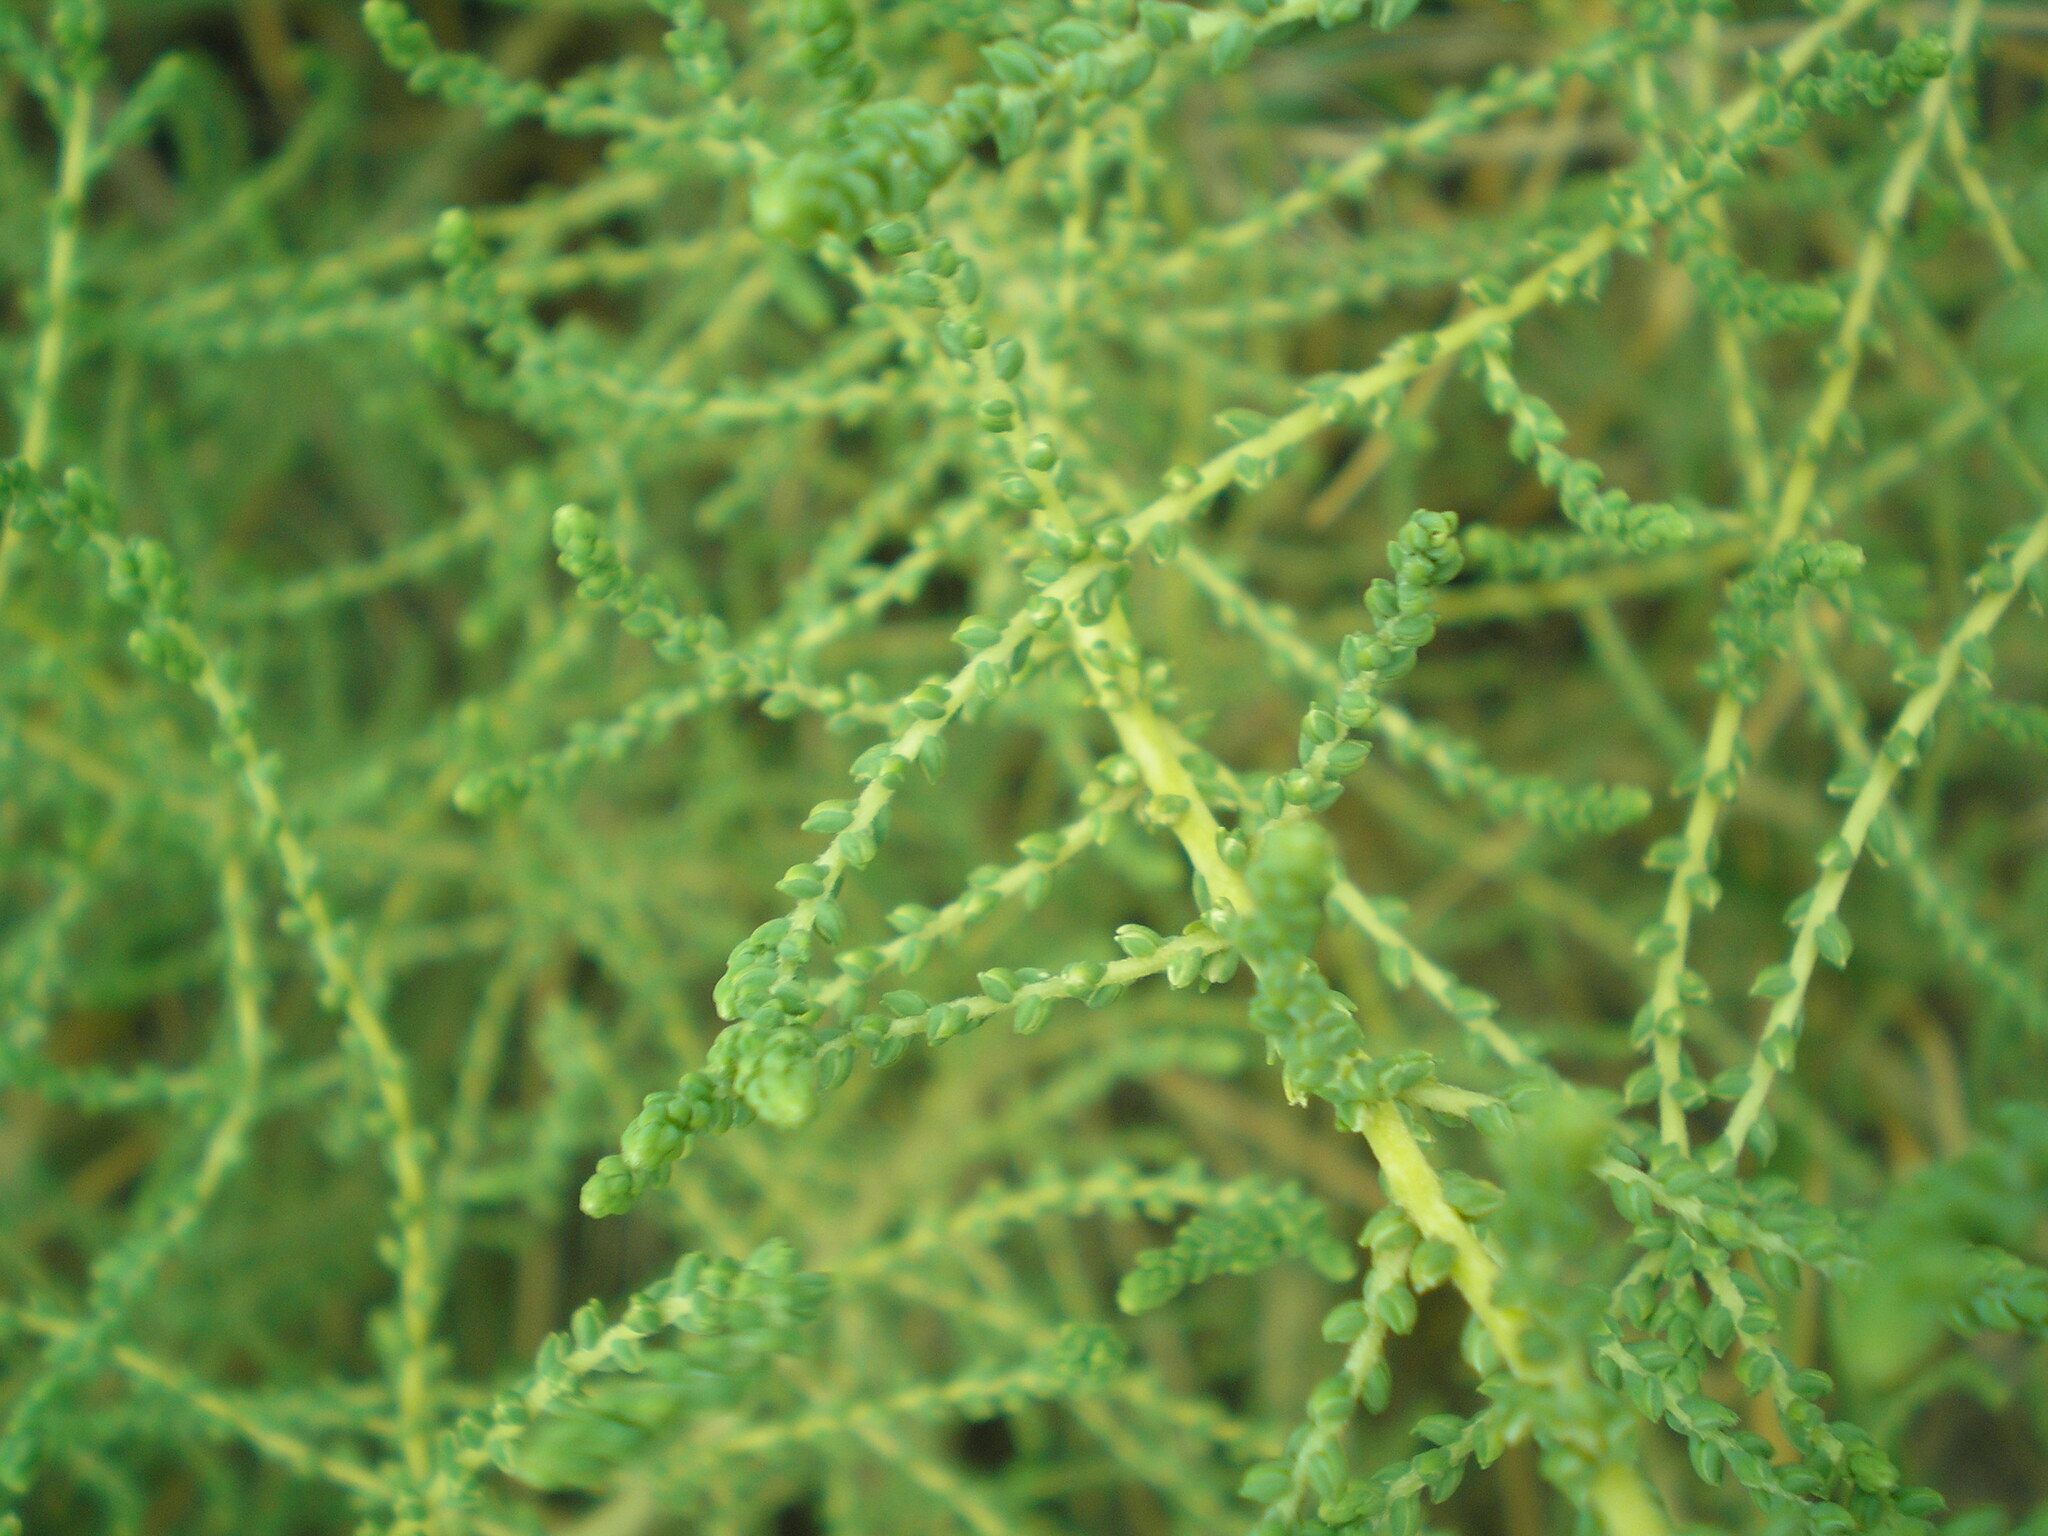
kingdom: Plantae
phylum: Tracheophyta
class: Magnoliopsida
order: Caryophyllales
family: Amaranthaceae
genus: Bassia
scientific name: Bassia prostrata
